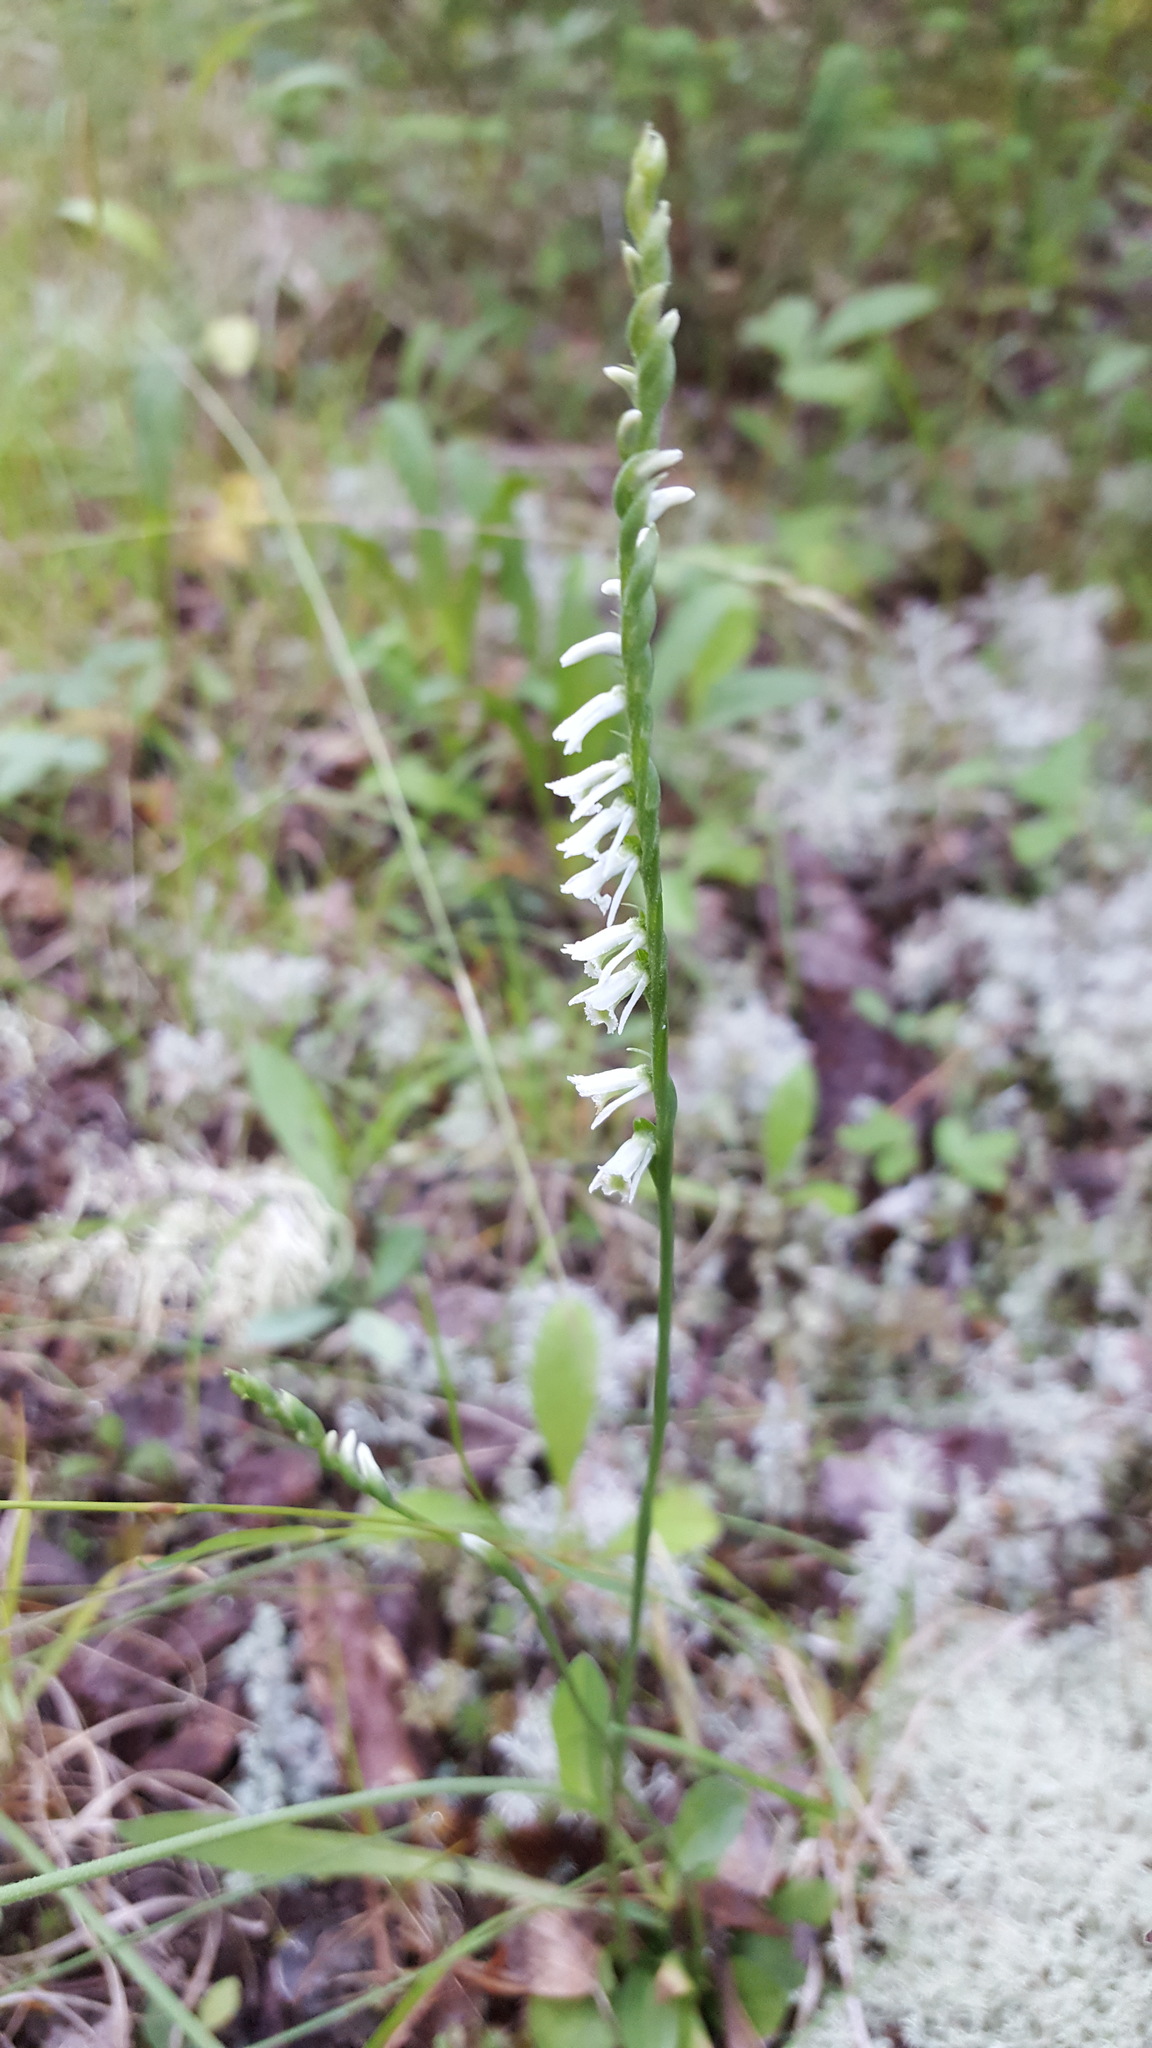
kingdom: Plantae
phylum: Tracheophyta
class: Liliopsida
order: Asparagales
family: Orchidaceae
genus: Spiranthes
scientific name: Spiranthes lacera
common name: Northern slender ladies'-tresses
